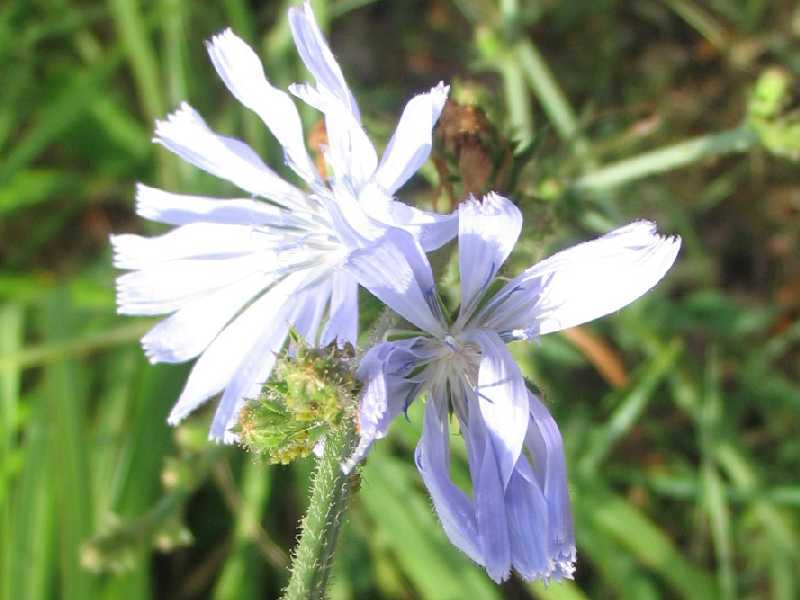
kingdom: Plantae
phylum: Tracheophyta
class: Magnoliopsida
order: Asterales
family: Asteraceae
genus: Cichorium
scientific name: Cichorium intybus
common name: Chicory
